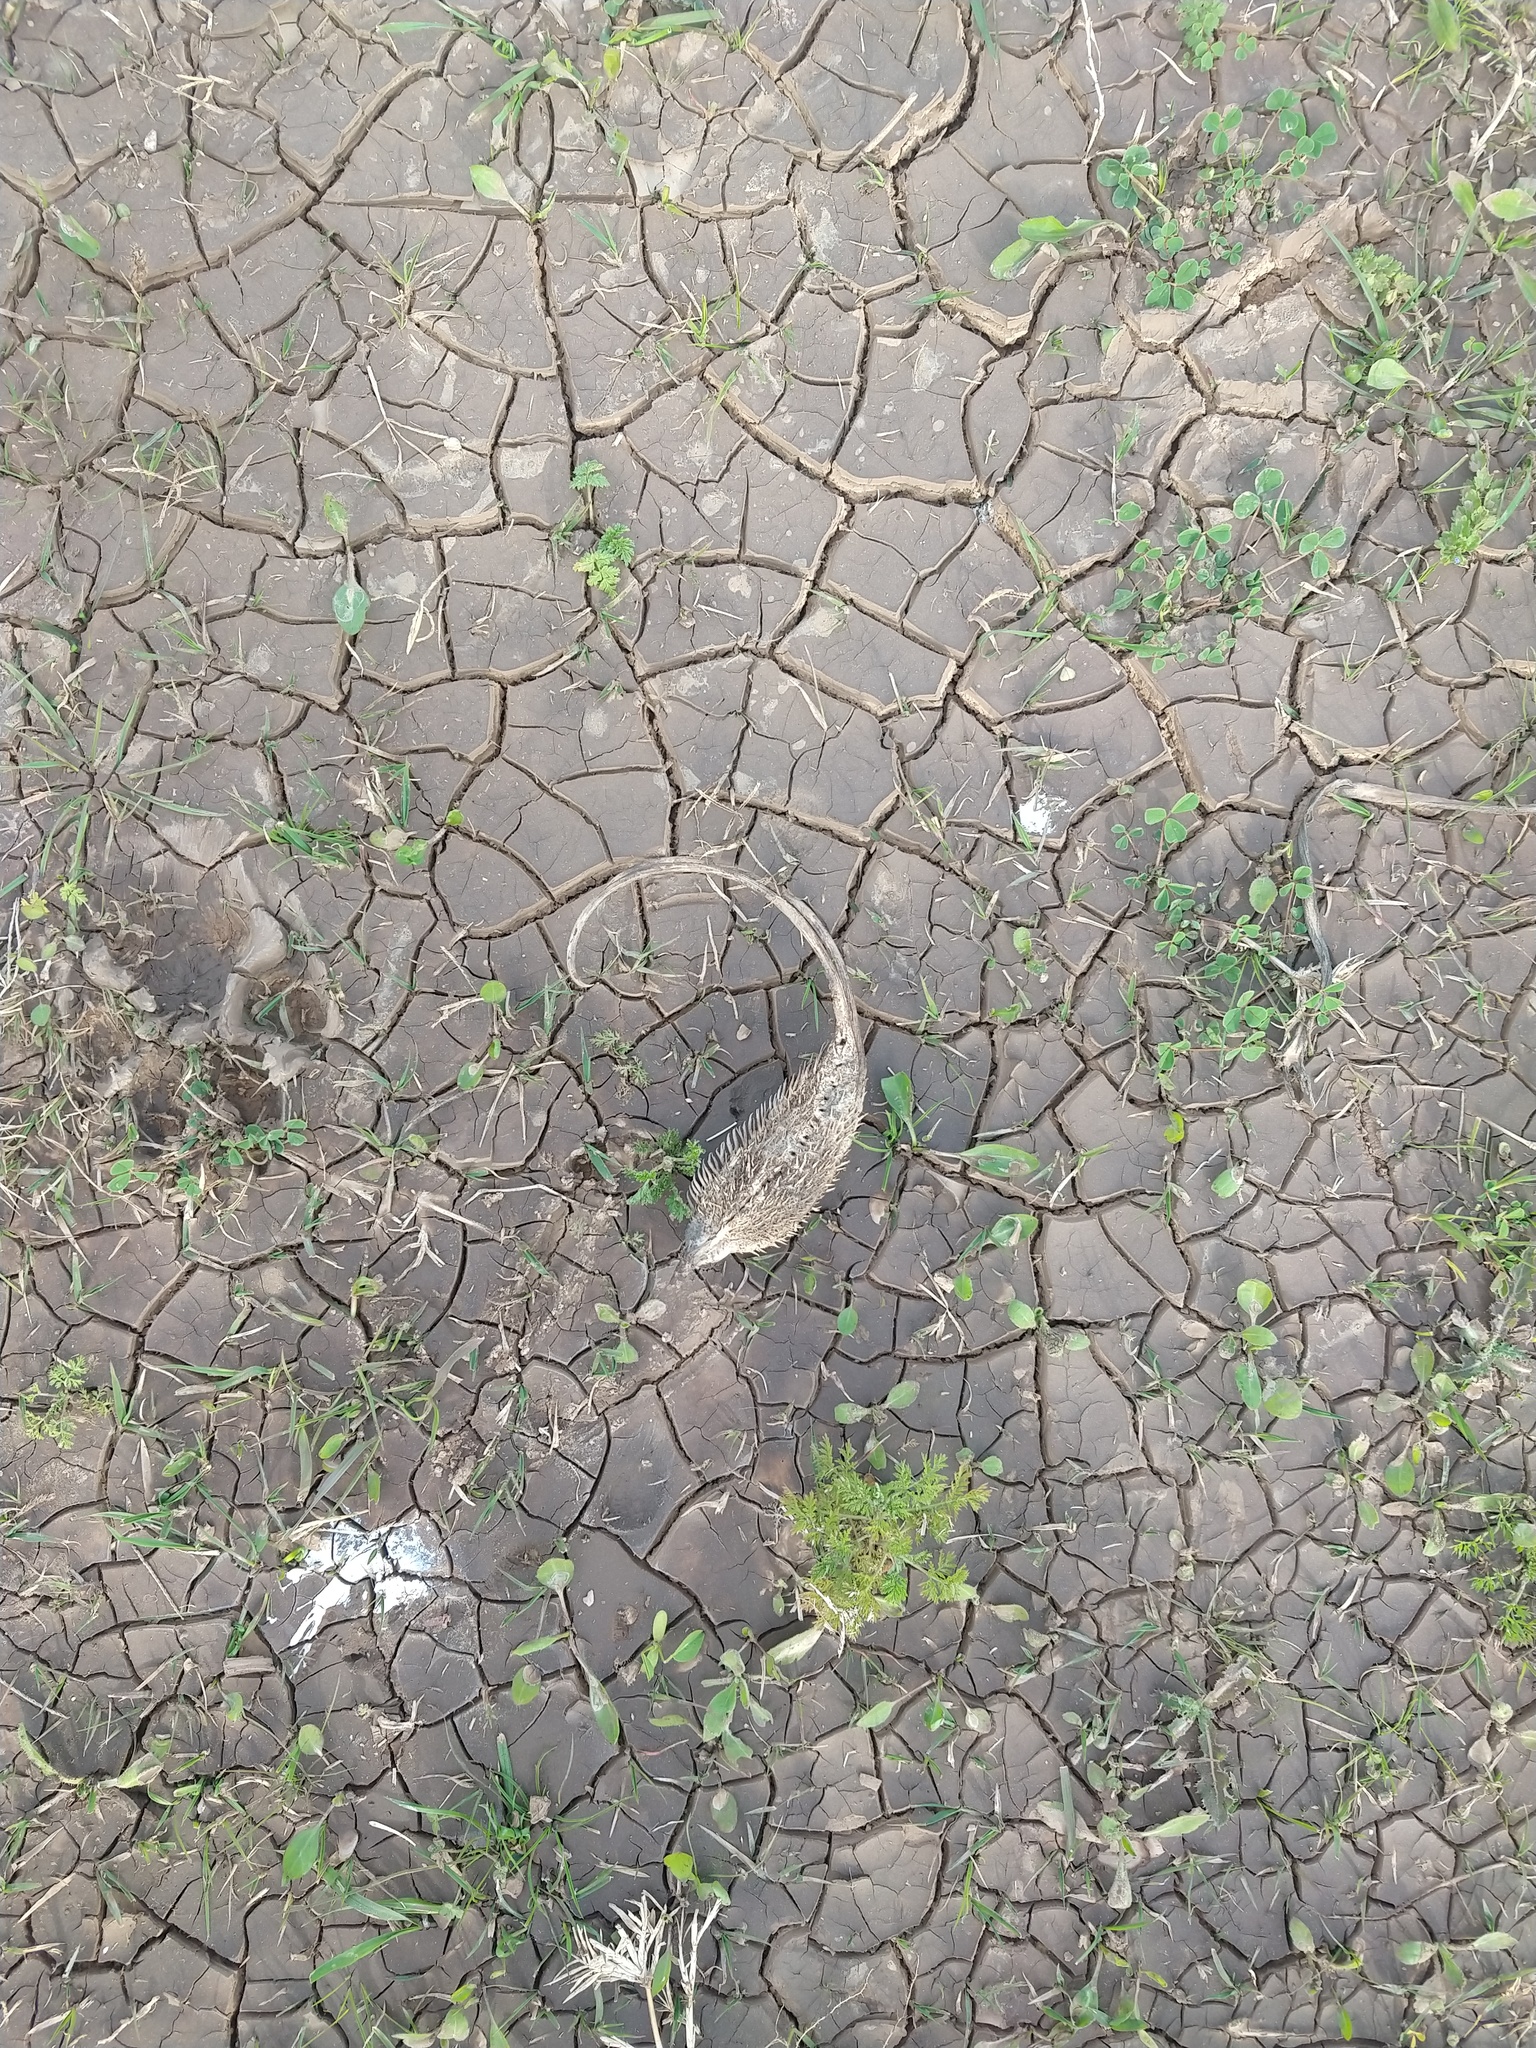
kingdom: Plantae
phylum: Tracheophyta
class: Magnoliopsida
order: Lamiales
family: Martyniaceae
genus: Ibicella
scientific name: Ibicella lutea
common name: Yellow unicorn-plant
